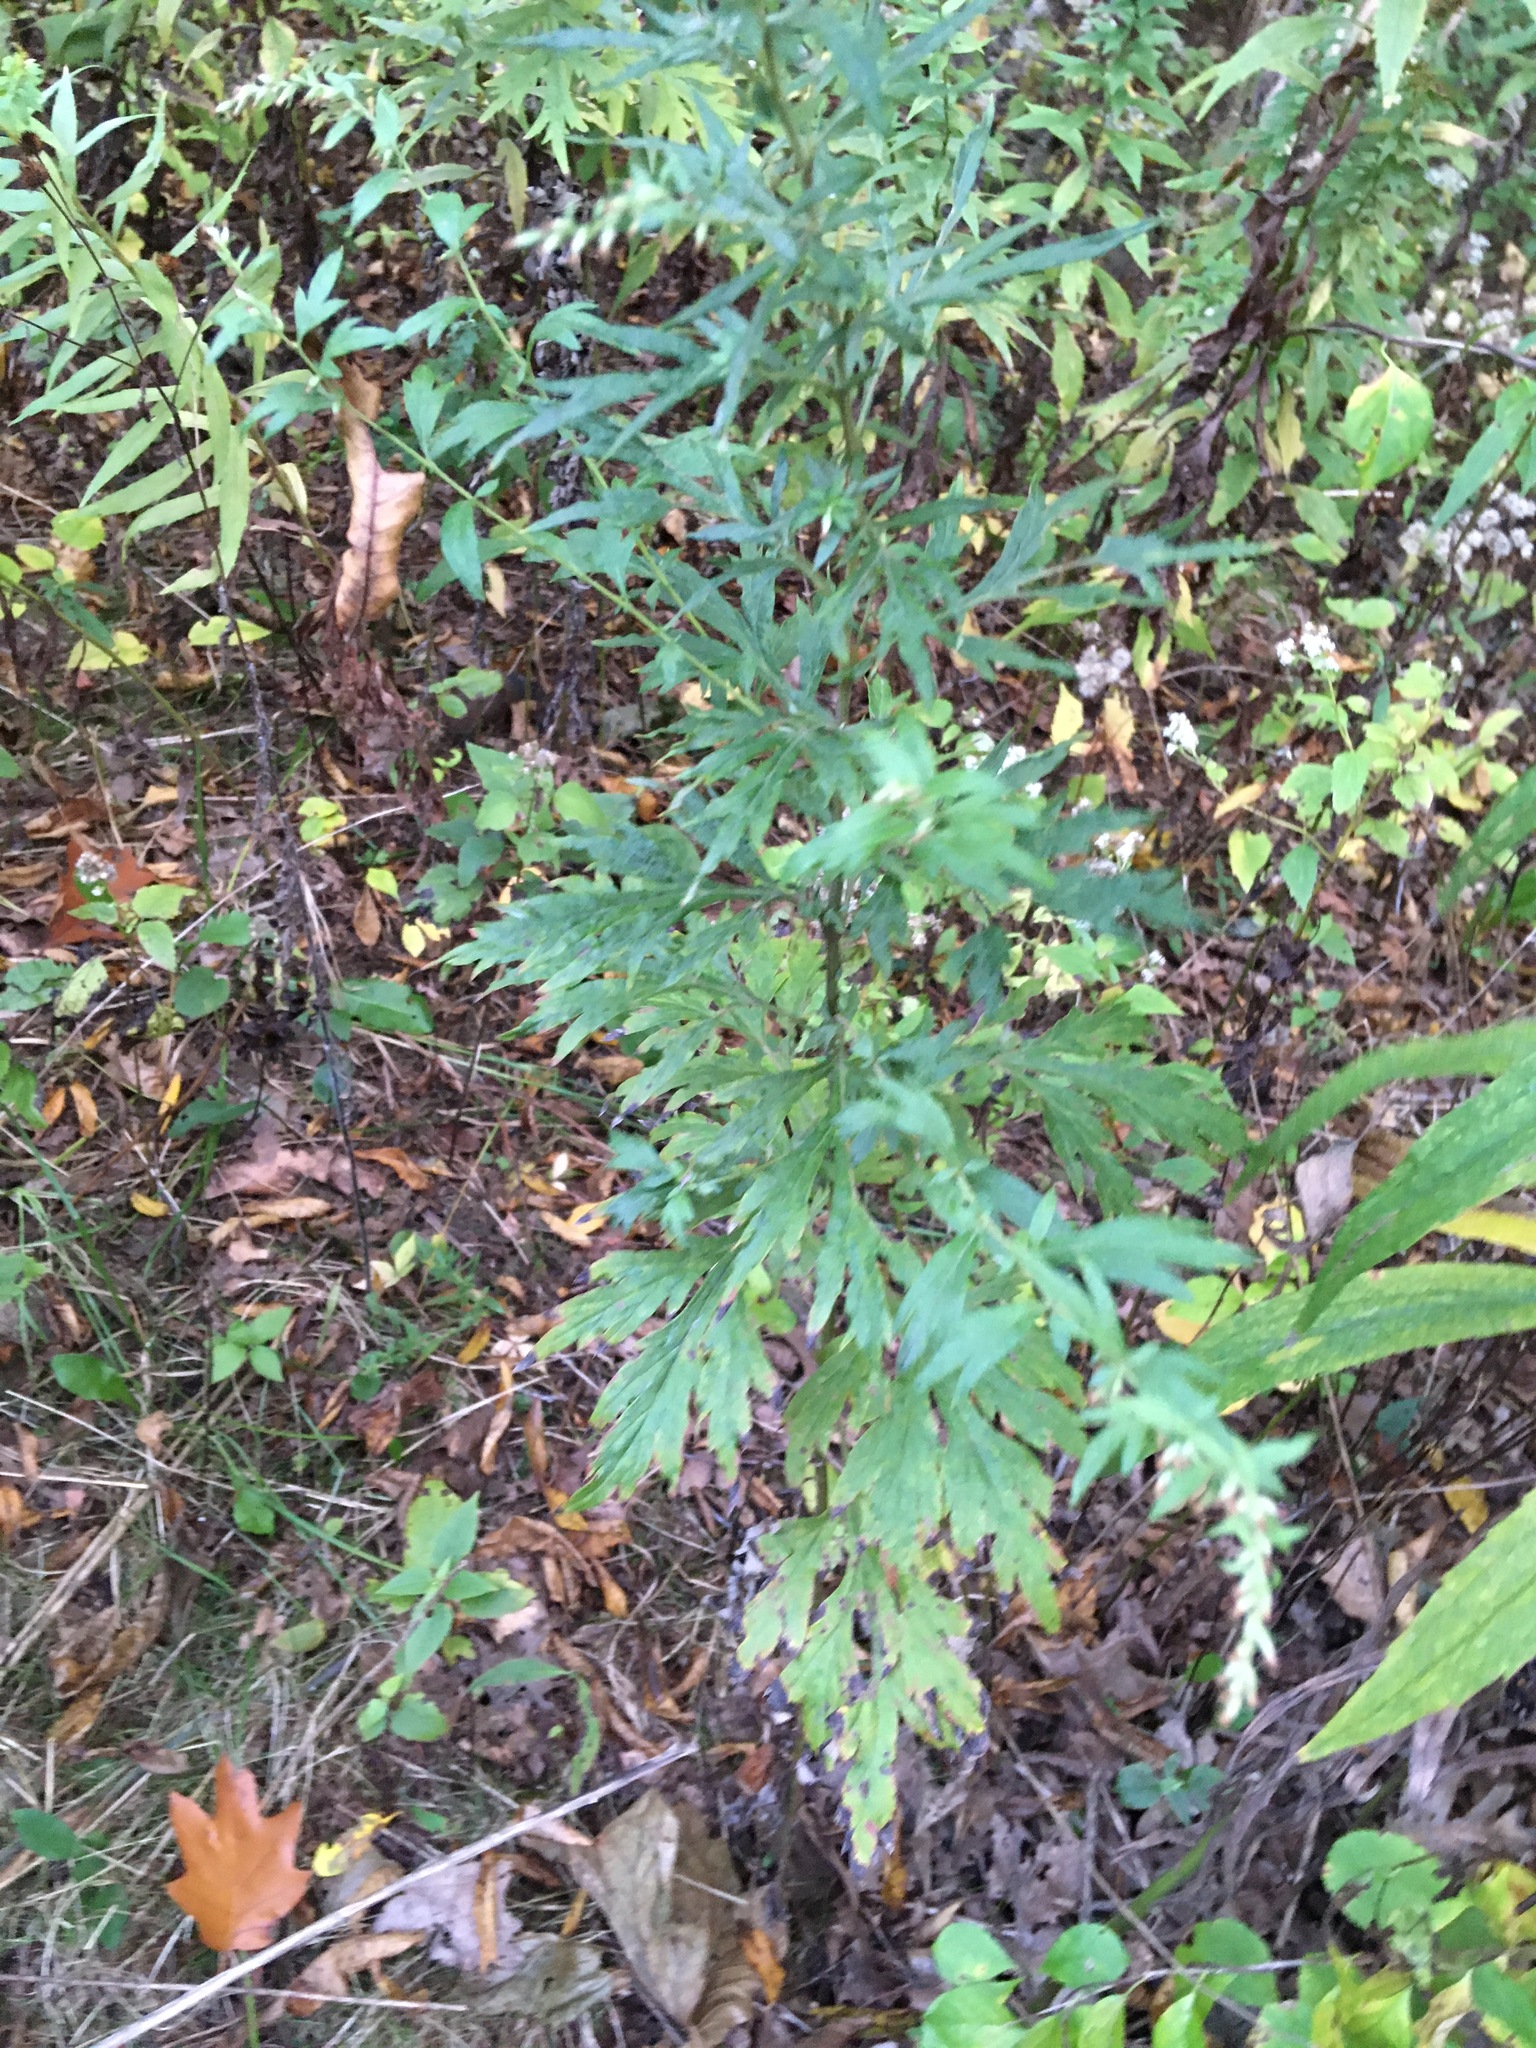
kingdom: Plantae
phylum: Tracheophyta
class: Magnoliopsida
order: Asterales
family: Asteraceae
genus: Artemisia
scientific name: Artemisia vulgaris
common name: Mugwort
